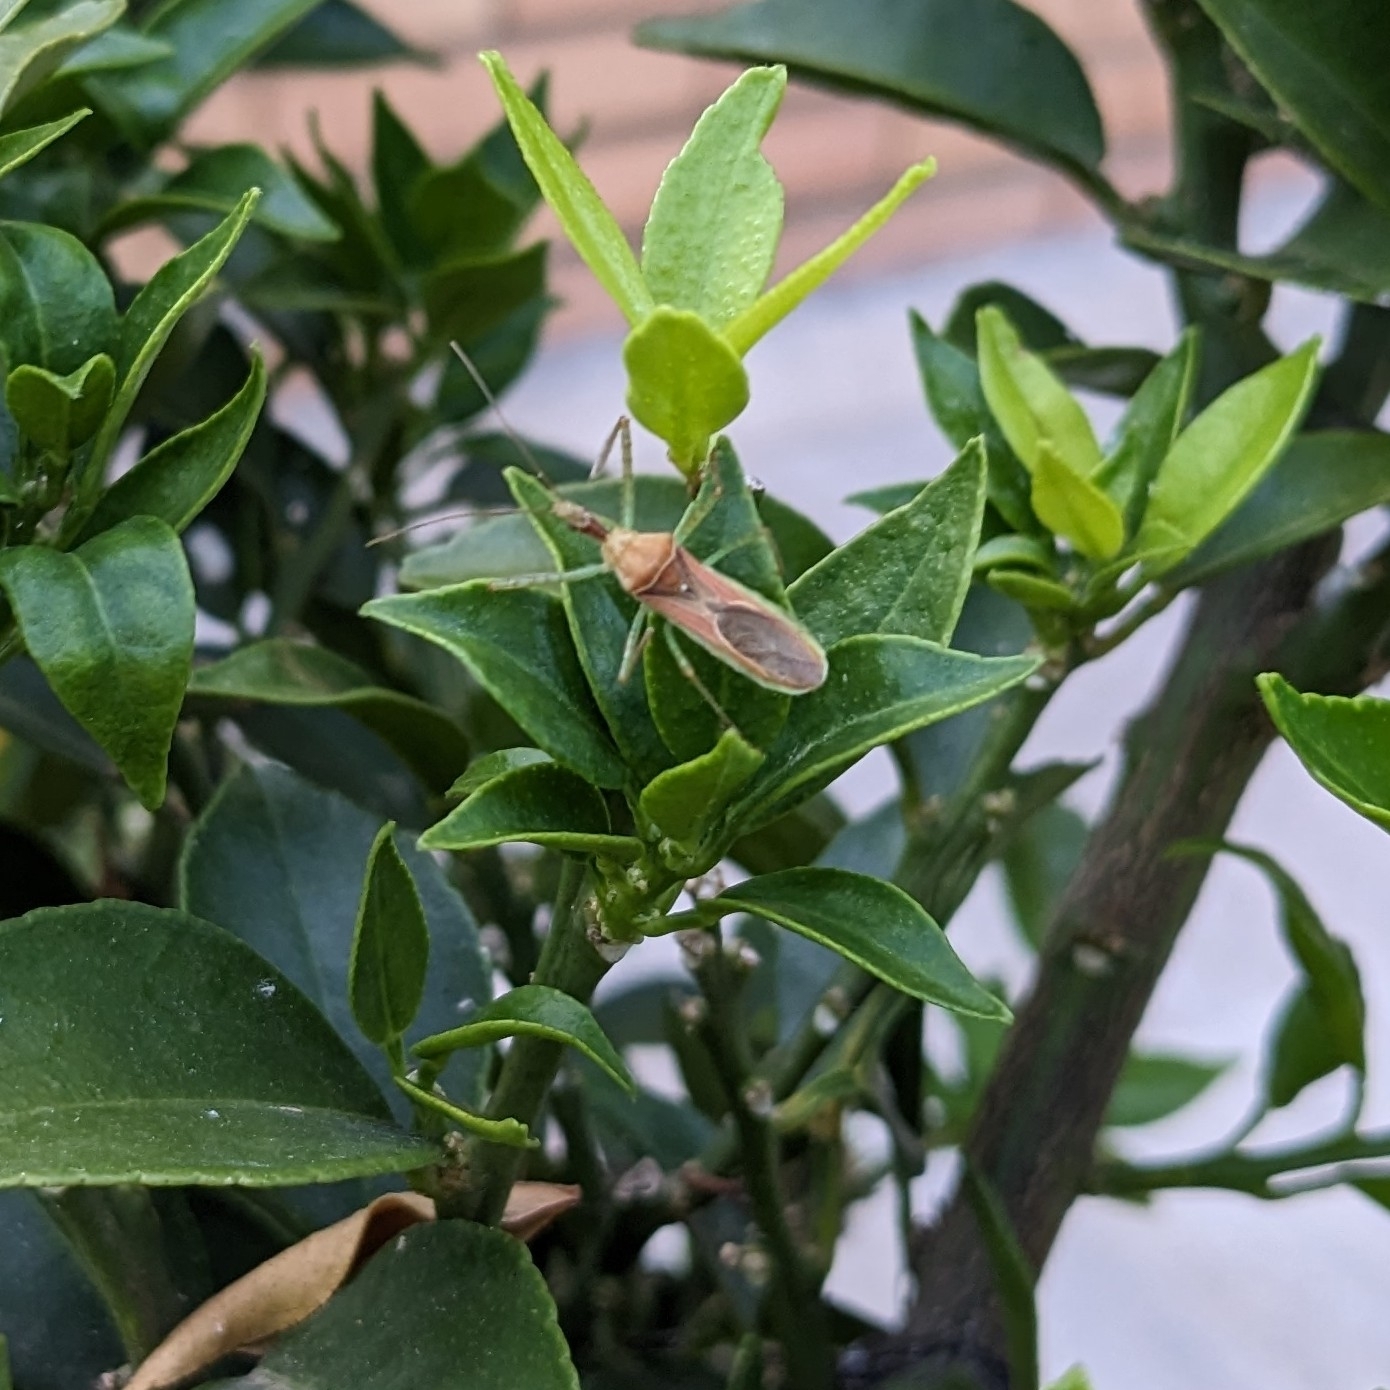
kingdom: Animalia
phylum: Arthropoda
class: Insecta
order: Hemiptera
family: Reduviidae
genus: Zelus
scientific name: Zelus renardii
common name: Assassin bug
